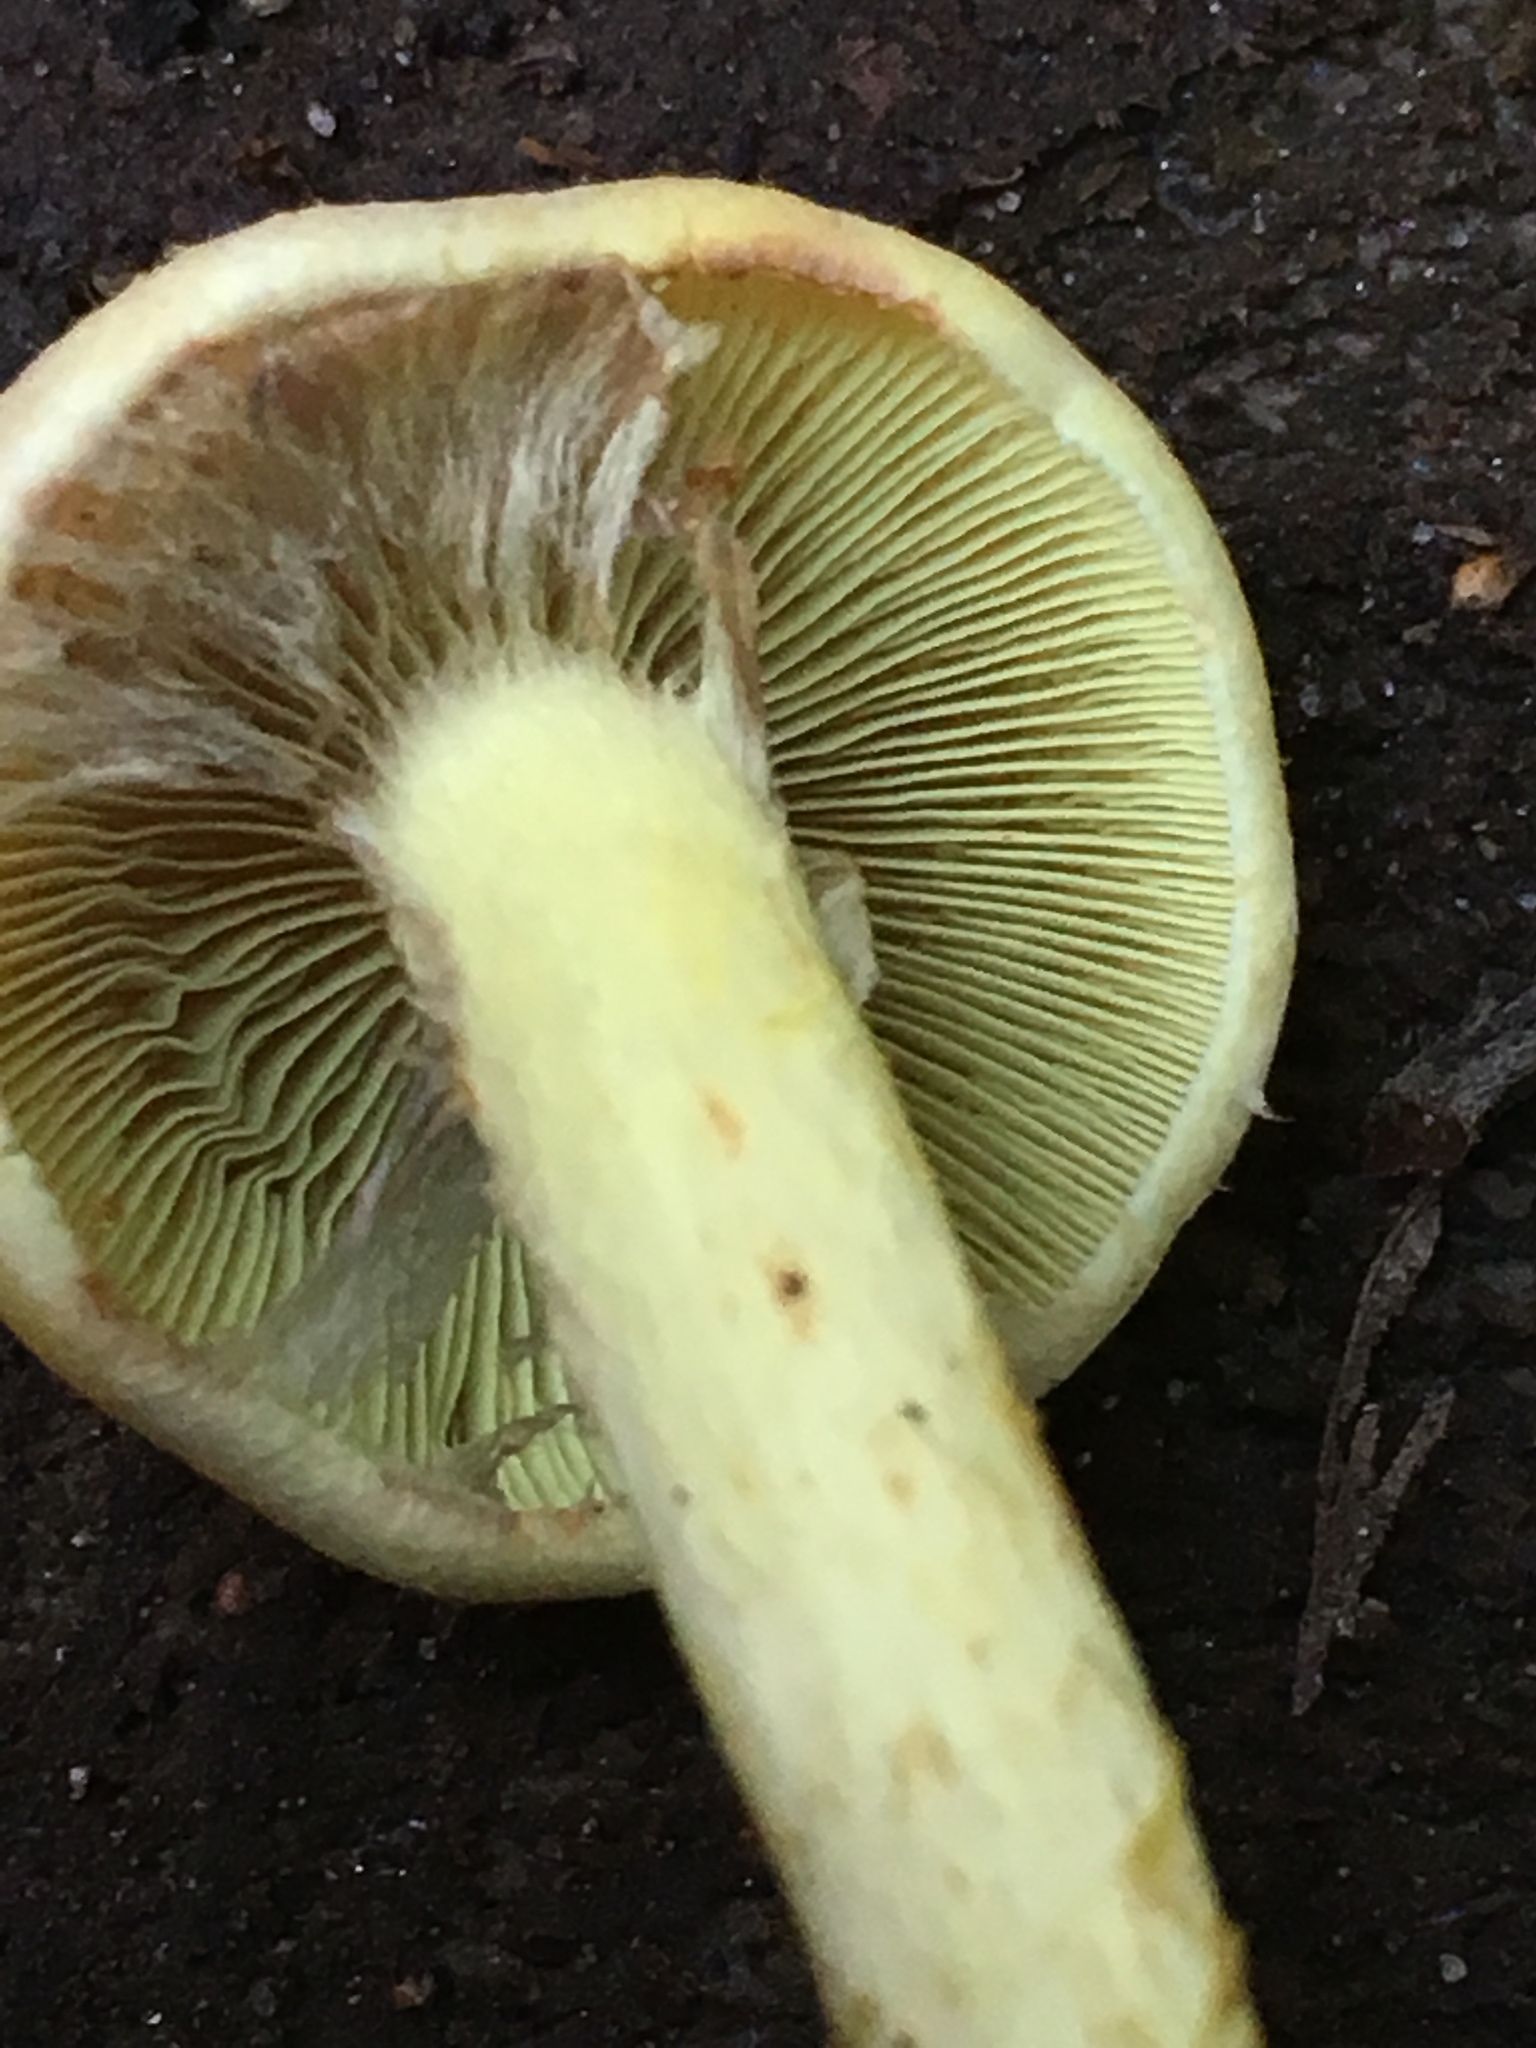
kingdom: Fungi
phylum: Basidiomycota
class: Agaricomycetes
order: Agaricales
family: Strophariaceae
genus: Hypholoma
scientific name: Hypholoma fasciculare
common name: Sulphur tuft
